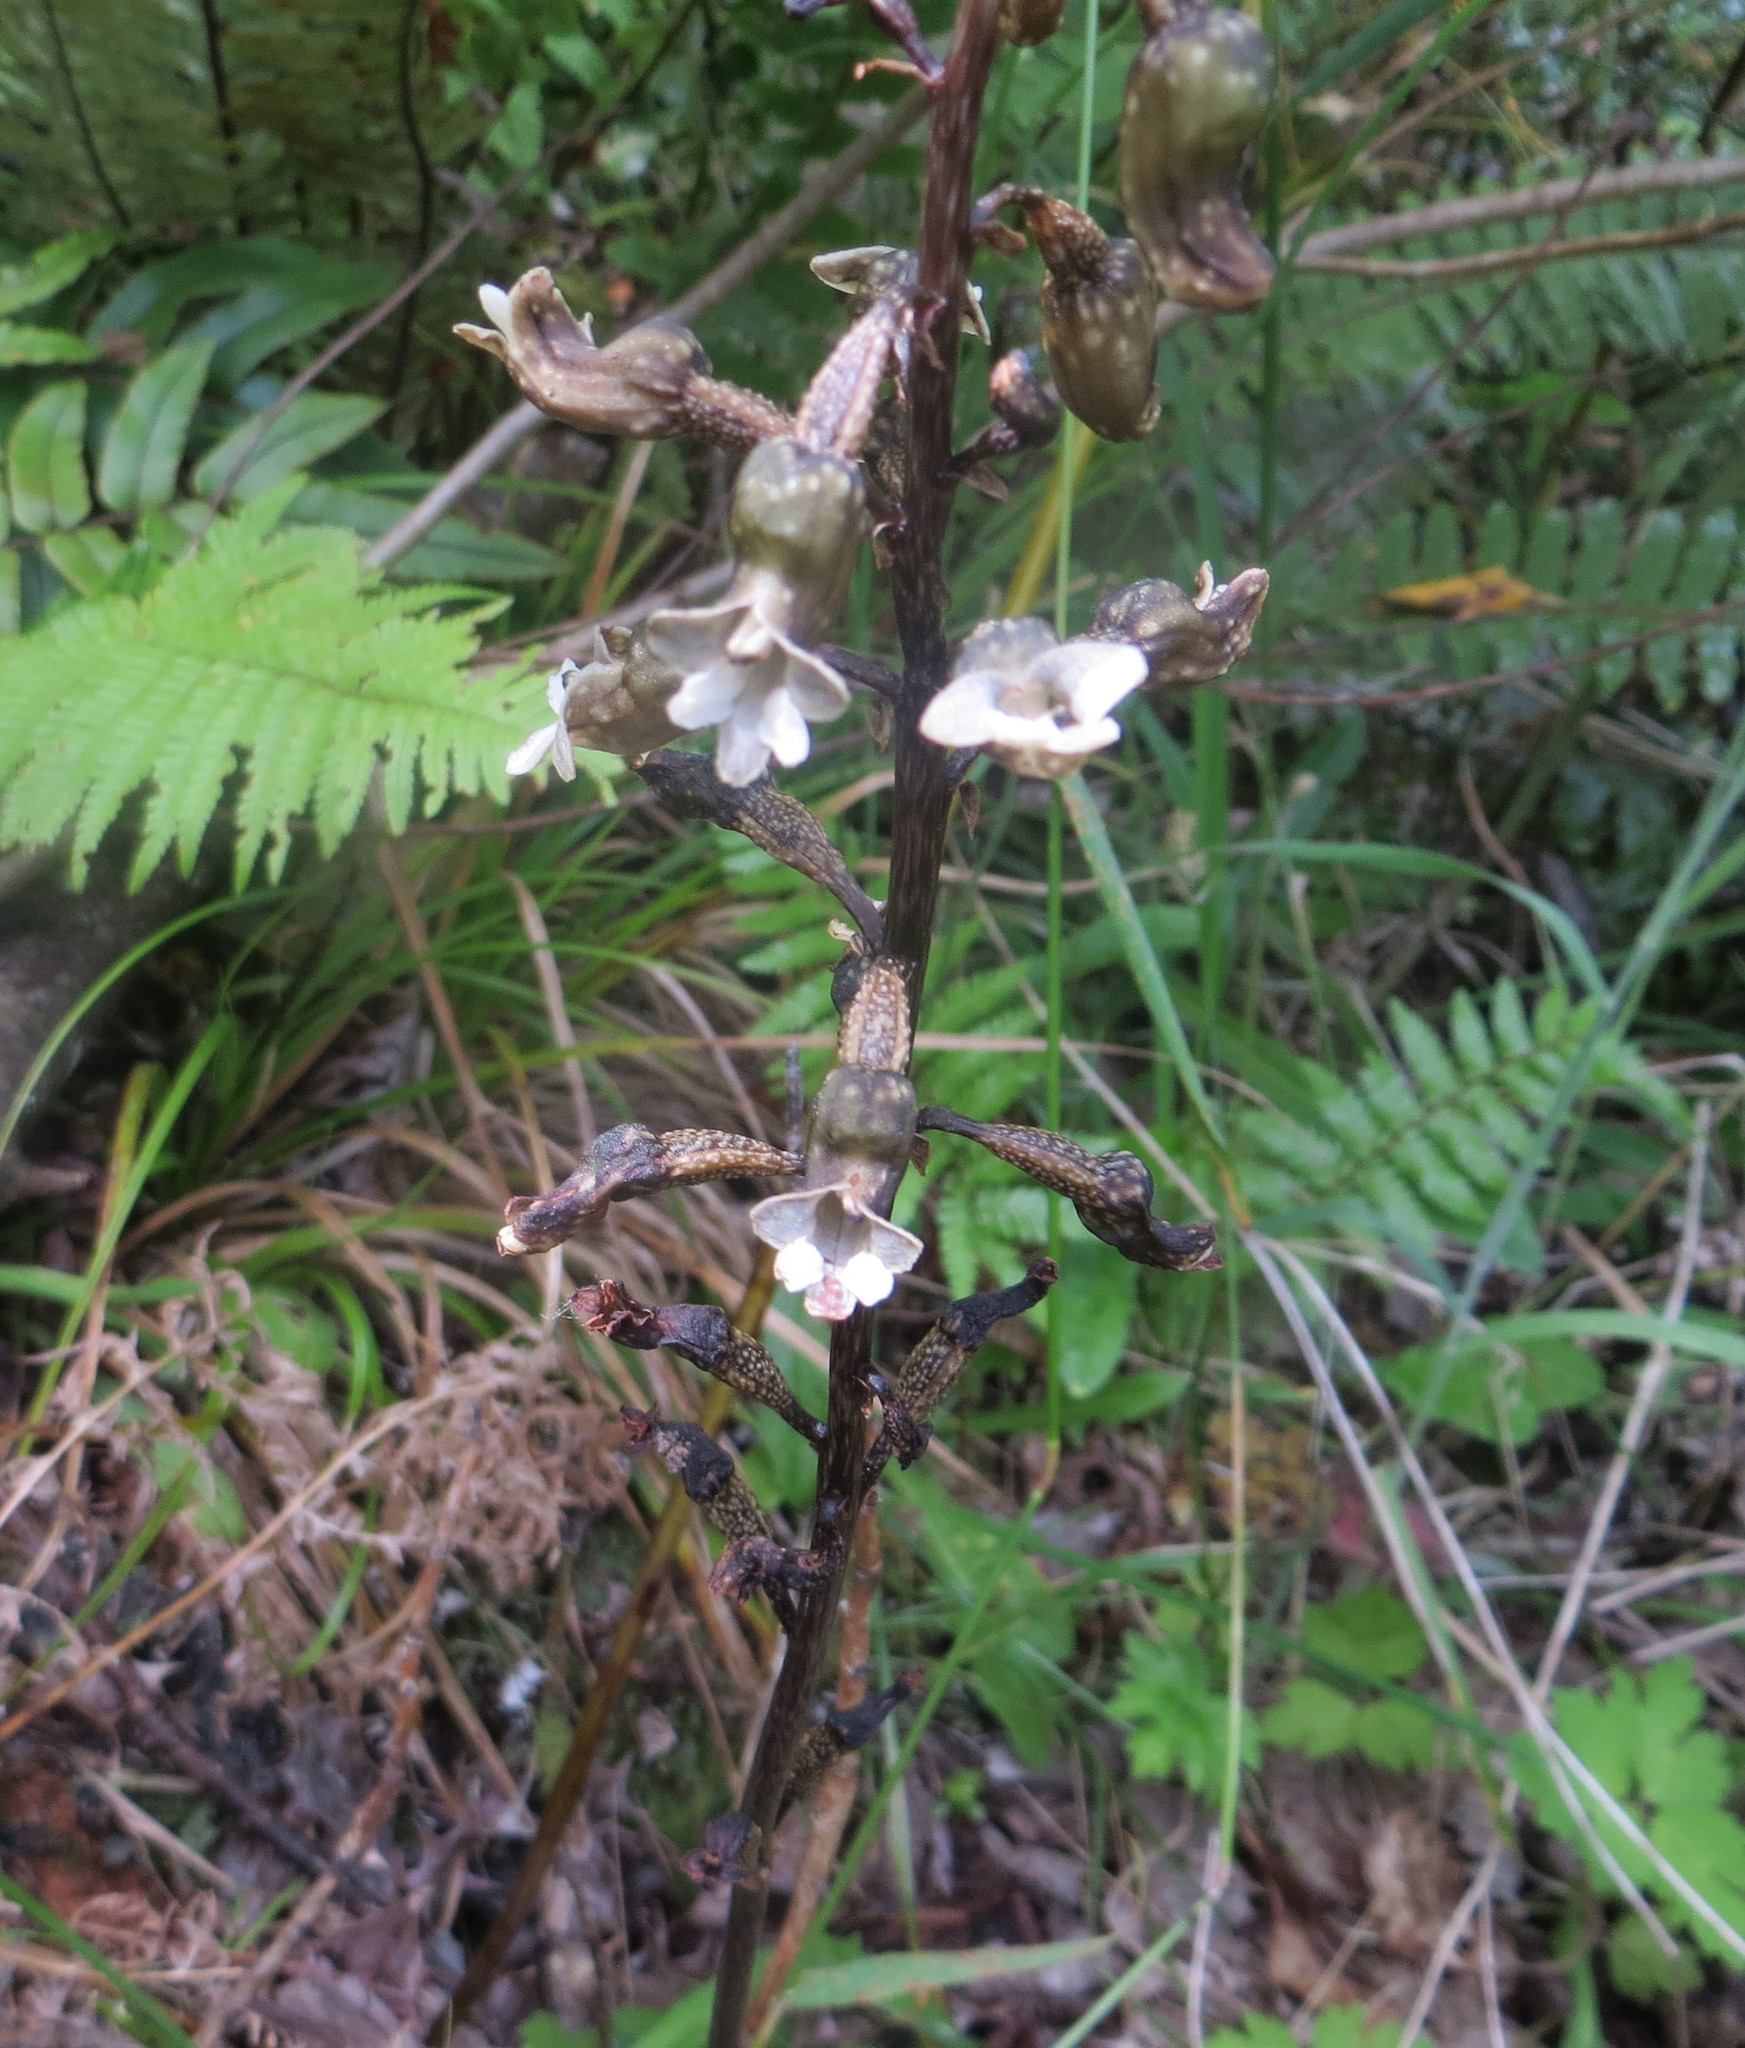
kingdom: Plantae
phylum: Tracheophyta
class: Liliopsida
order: Asparagales
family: Orchidaceae
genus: Gastrodia
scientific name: Gastrodia cunninghamii
